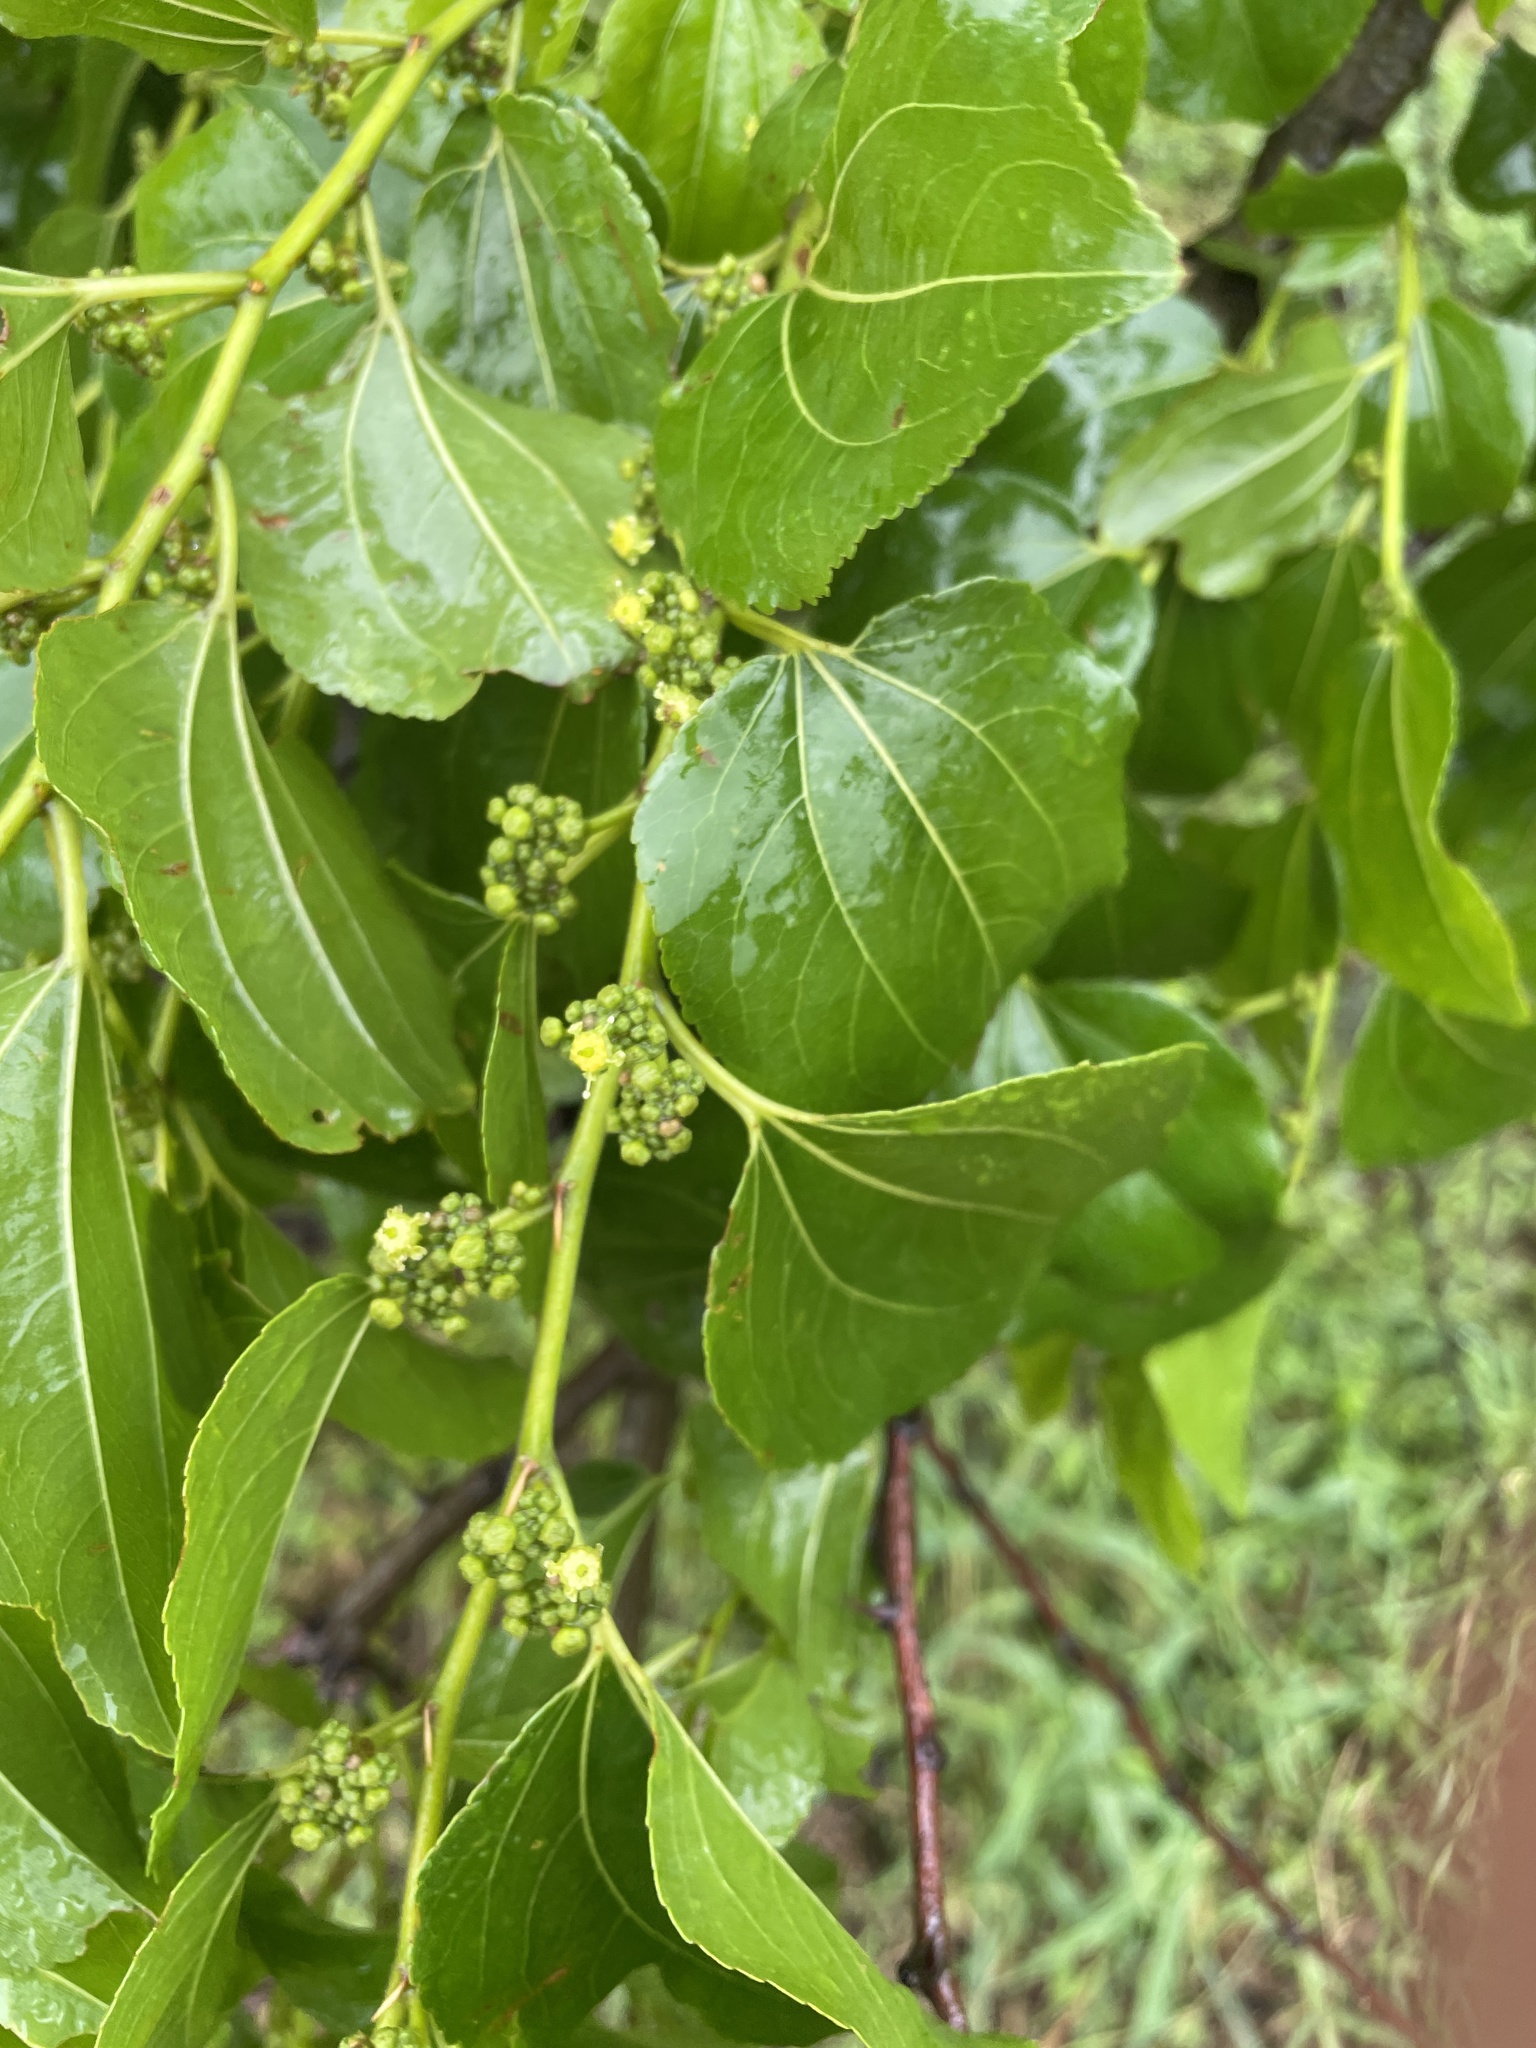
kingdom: Plantae
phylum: Tracheophyta
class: Magnoliopsida
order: Rosales
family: Rhamnaceae
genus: Ziziphus
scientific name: Ziziphus mucronata
